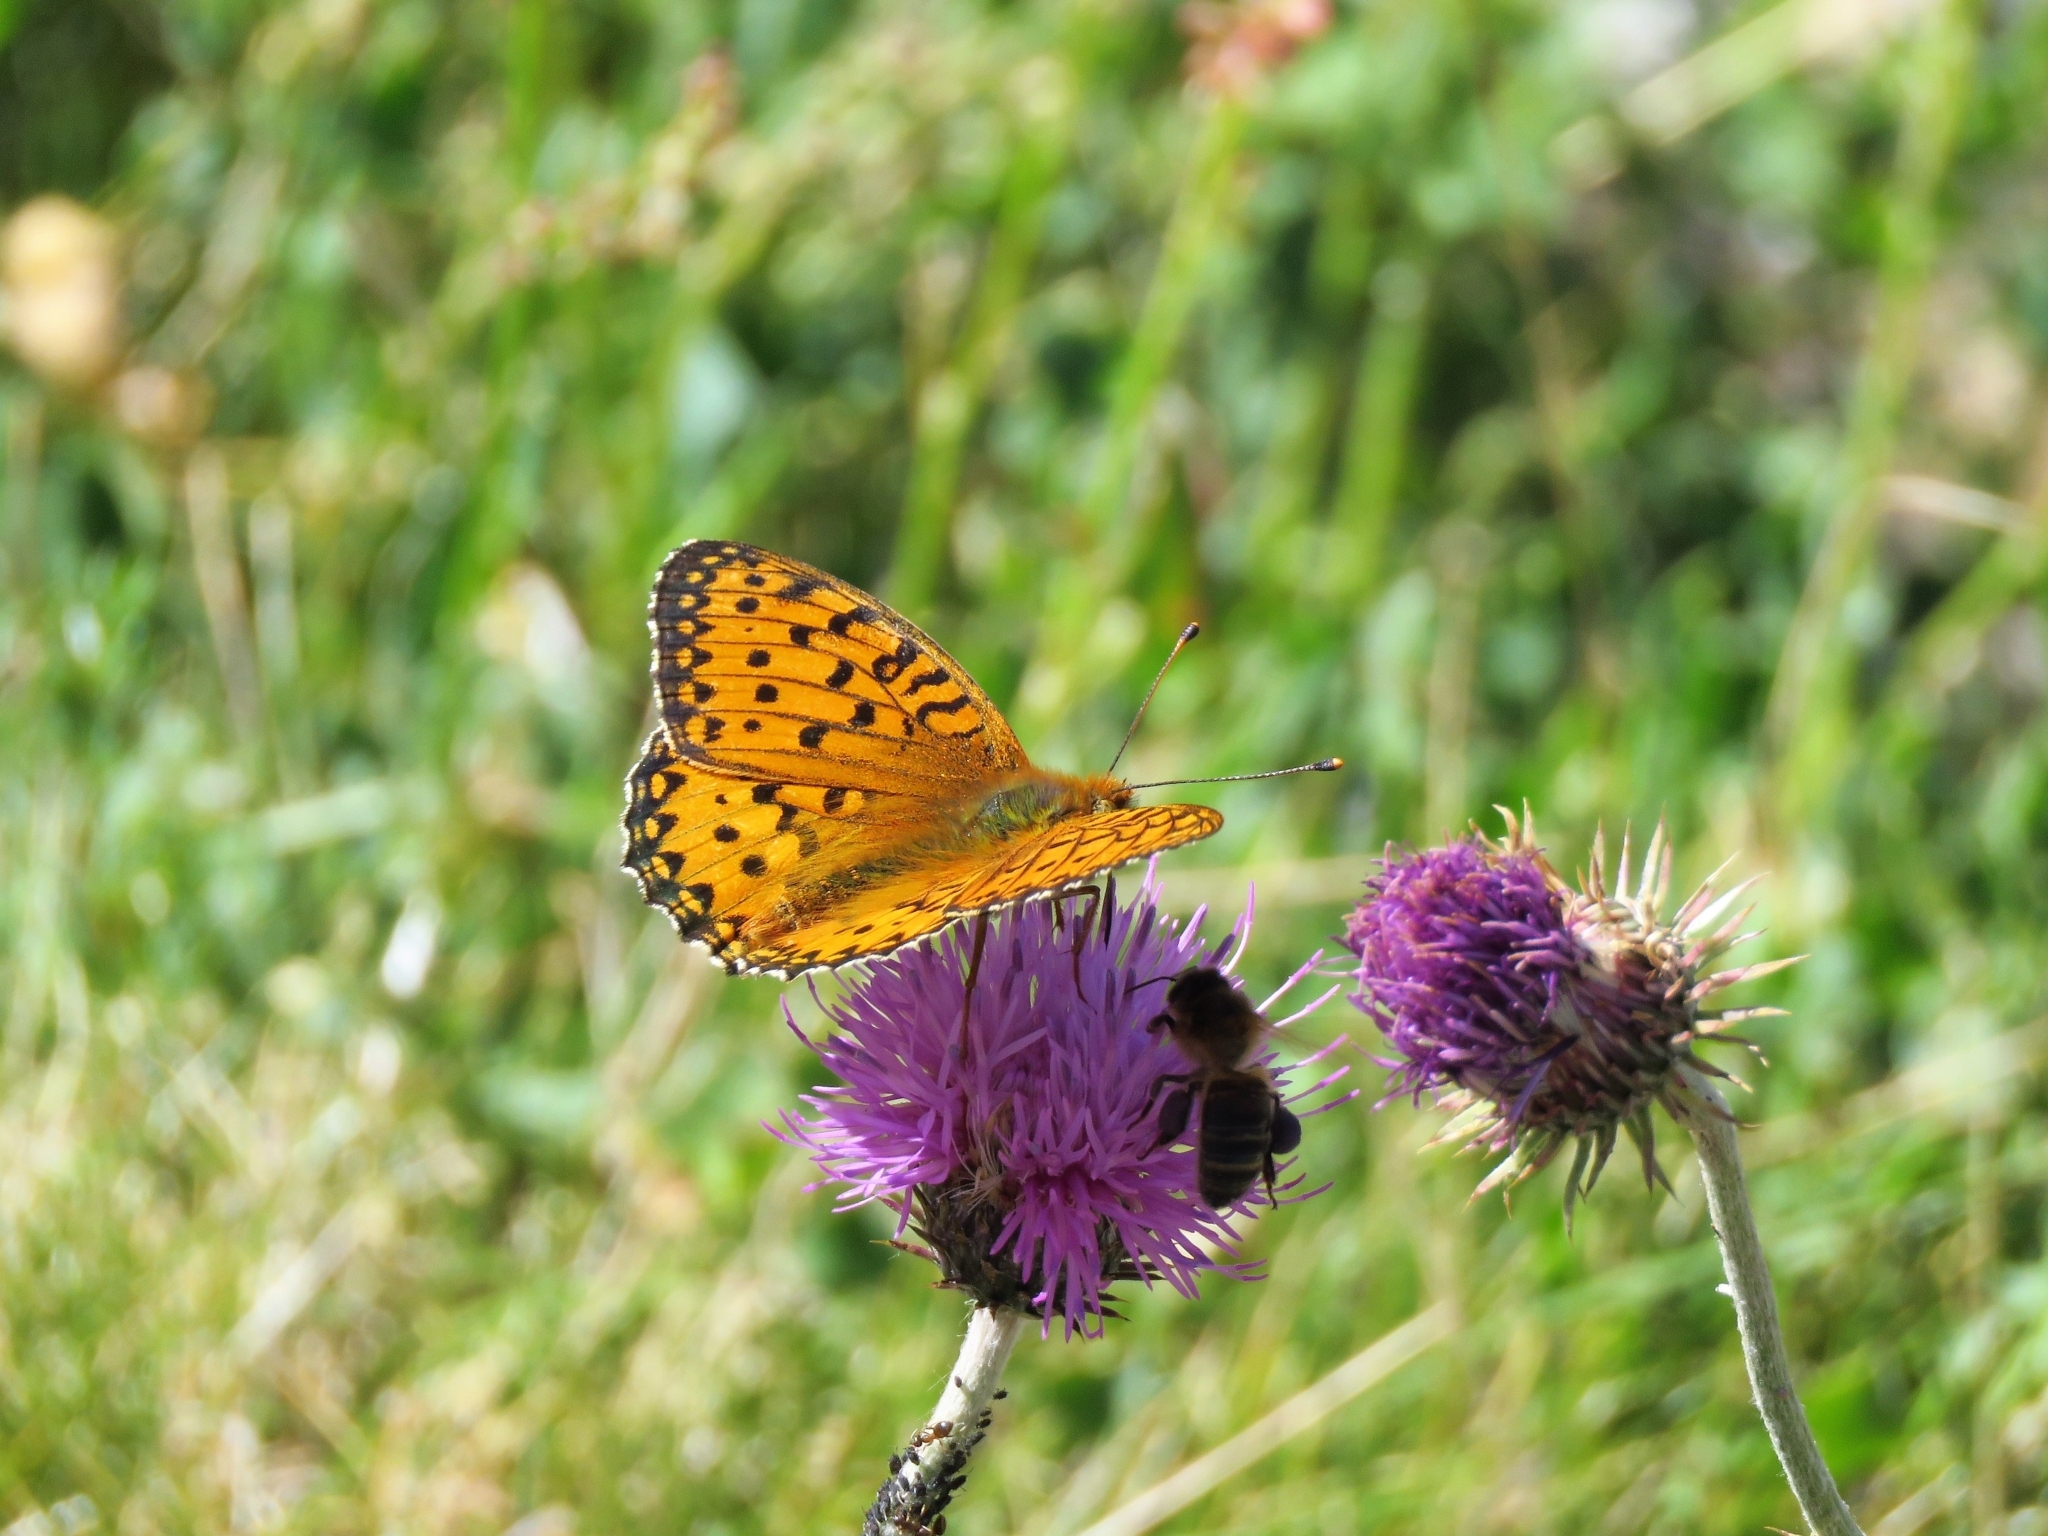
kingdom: Animalia
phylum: Arthropoda
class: Insecta
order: Lepidoptera
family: Nymphalidae
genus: Speyeria
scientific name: Speyeria aglaja
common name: Dark green fritillary
